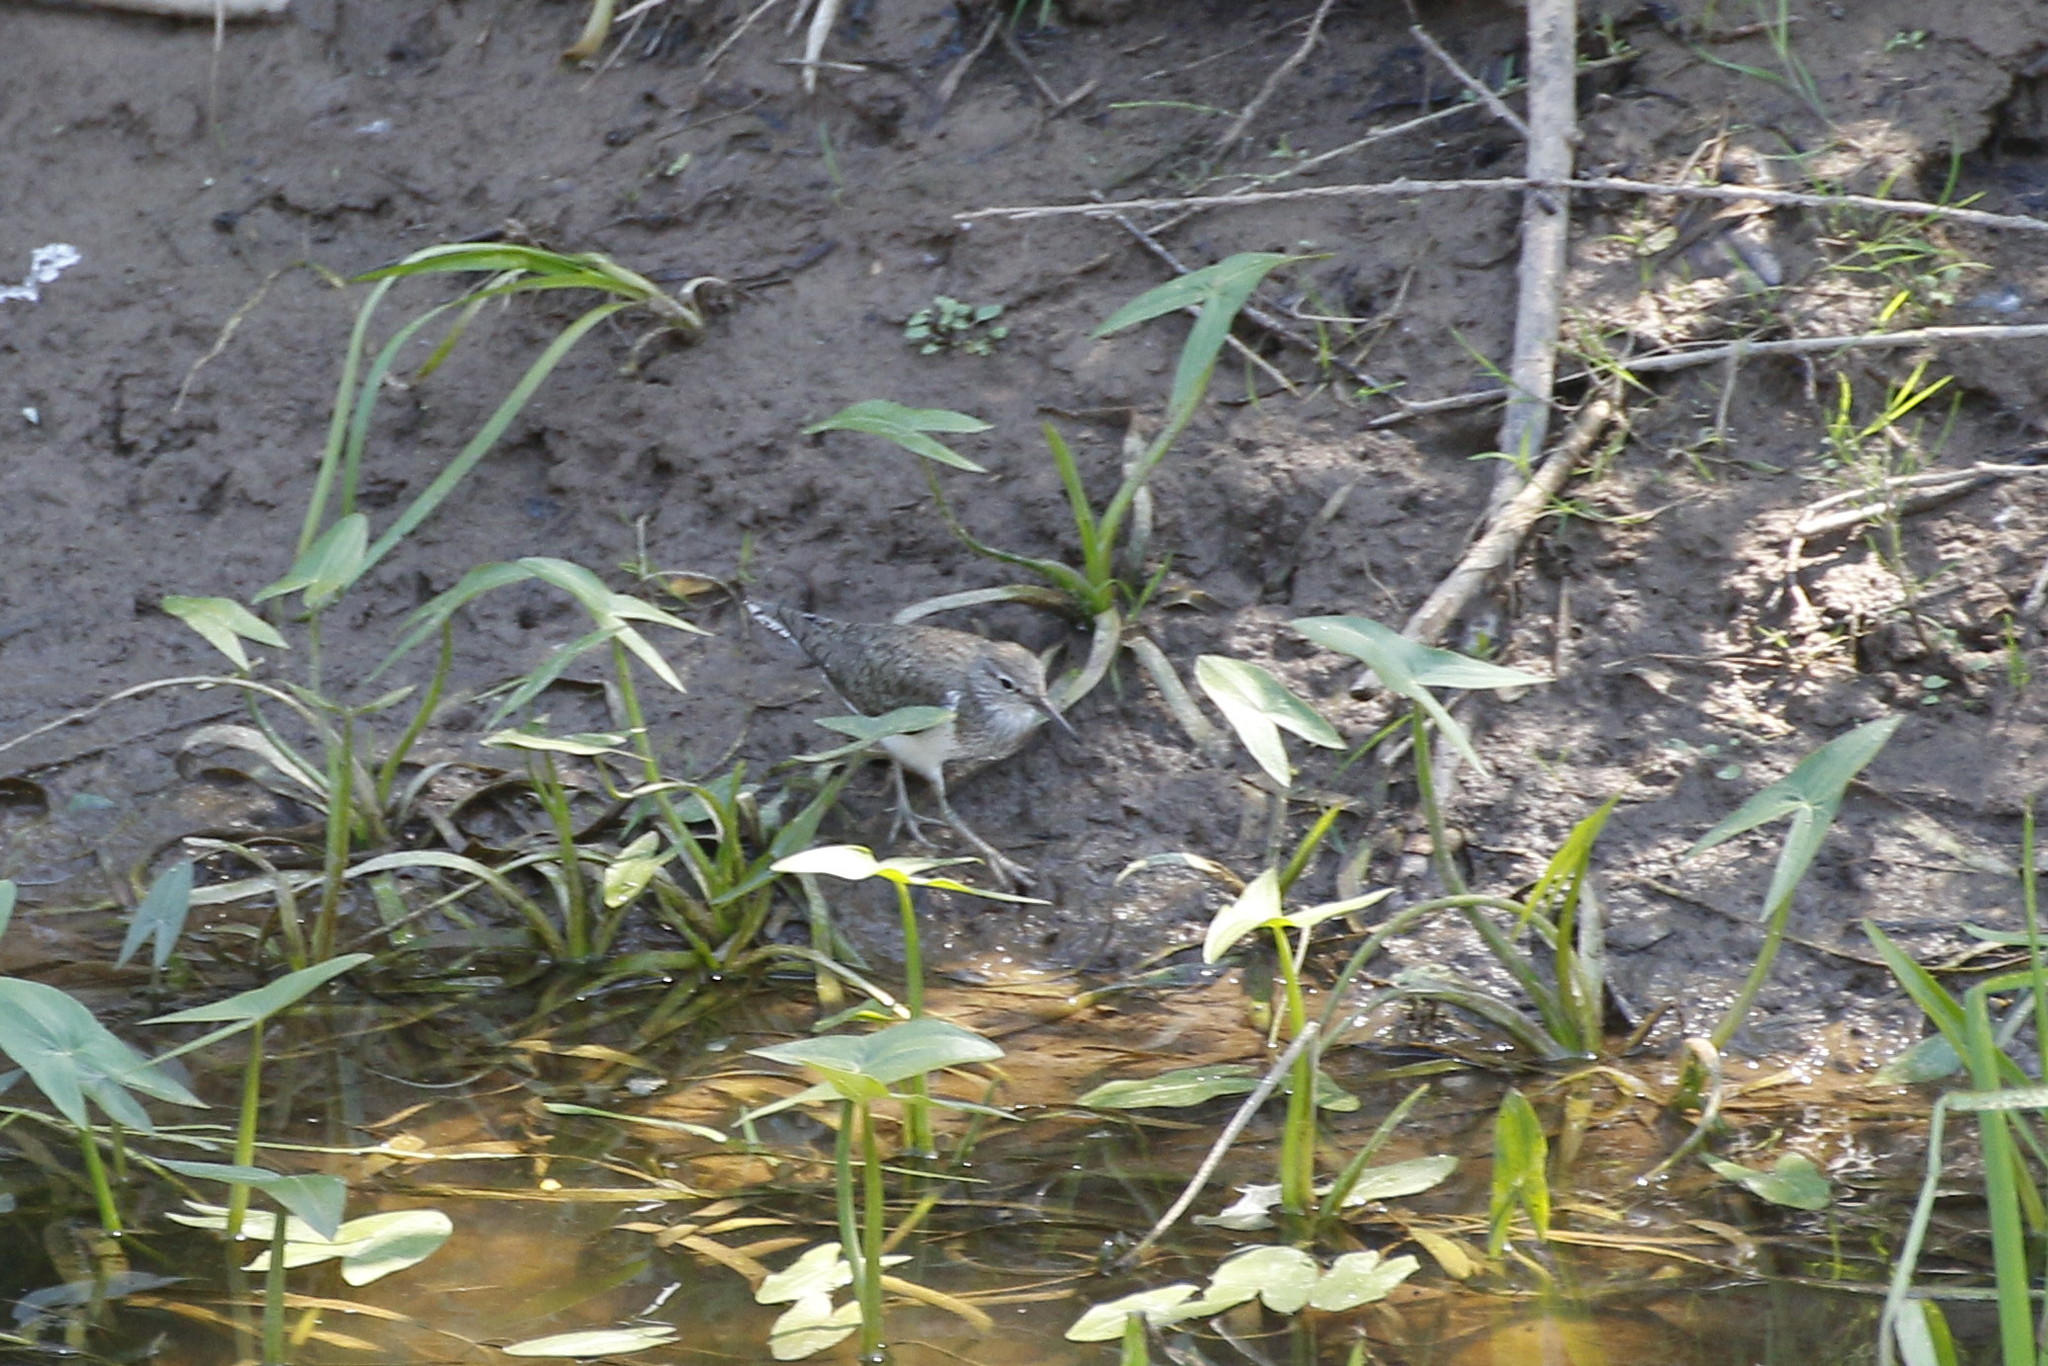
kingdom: Animalia
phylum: Chordata
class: Aves
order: Charadriiformes
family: Scolopacidae
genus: Actitis
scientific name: Actitis hypoleucos
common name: Common sandpiper
